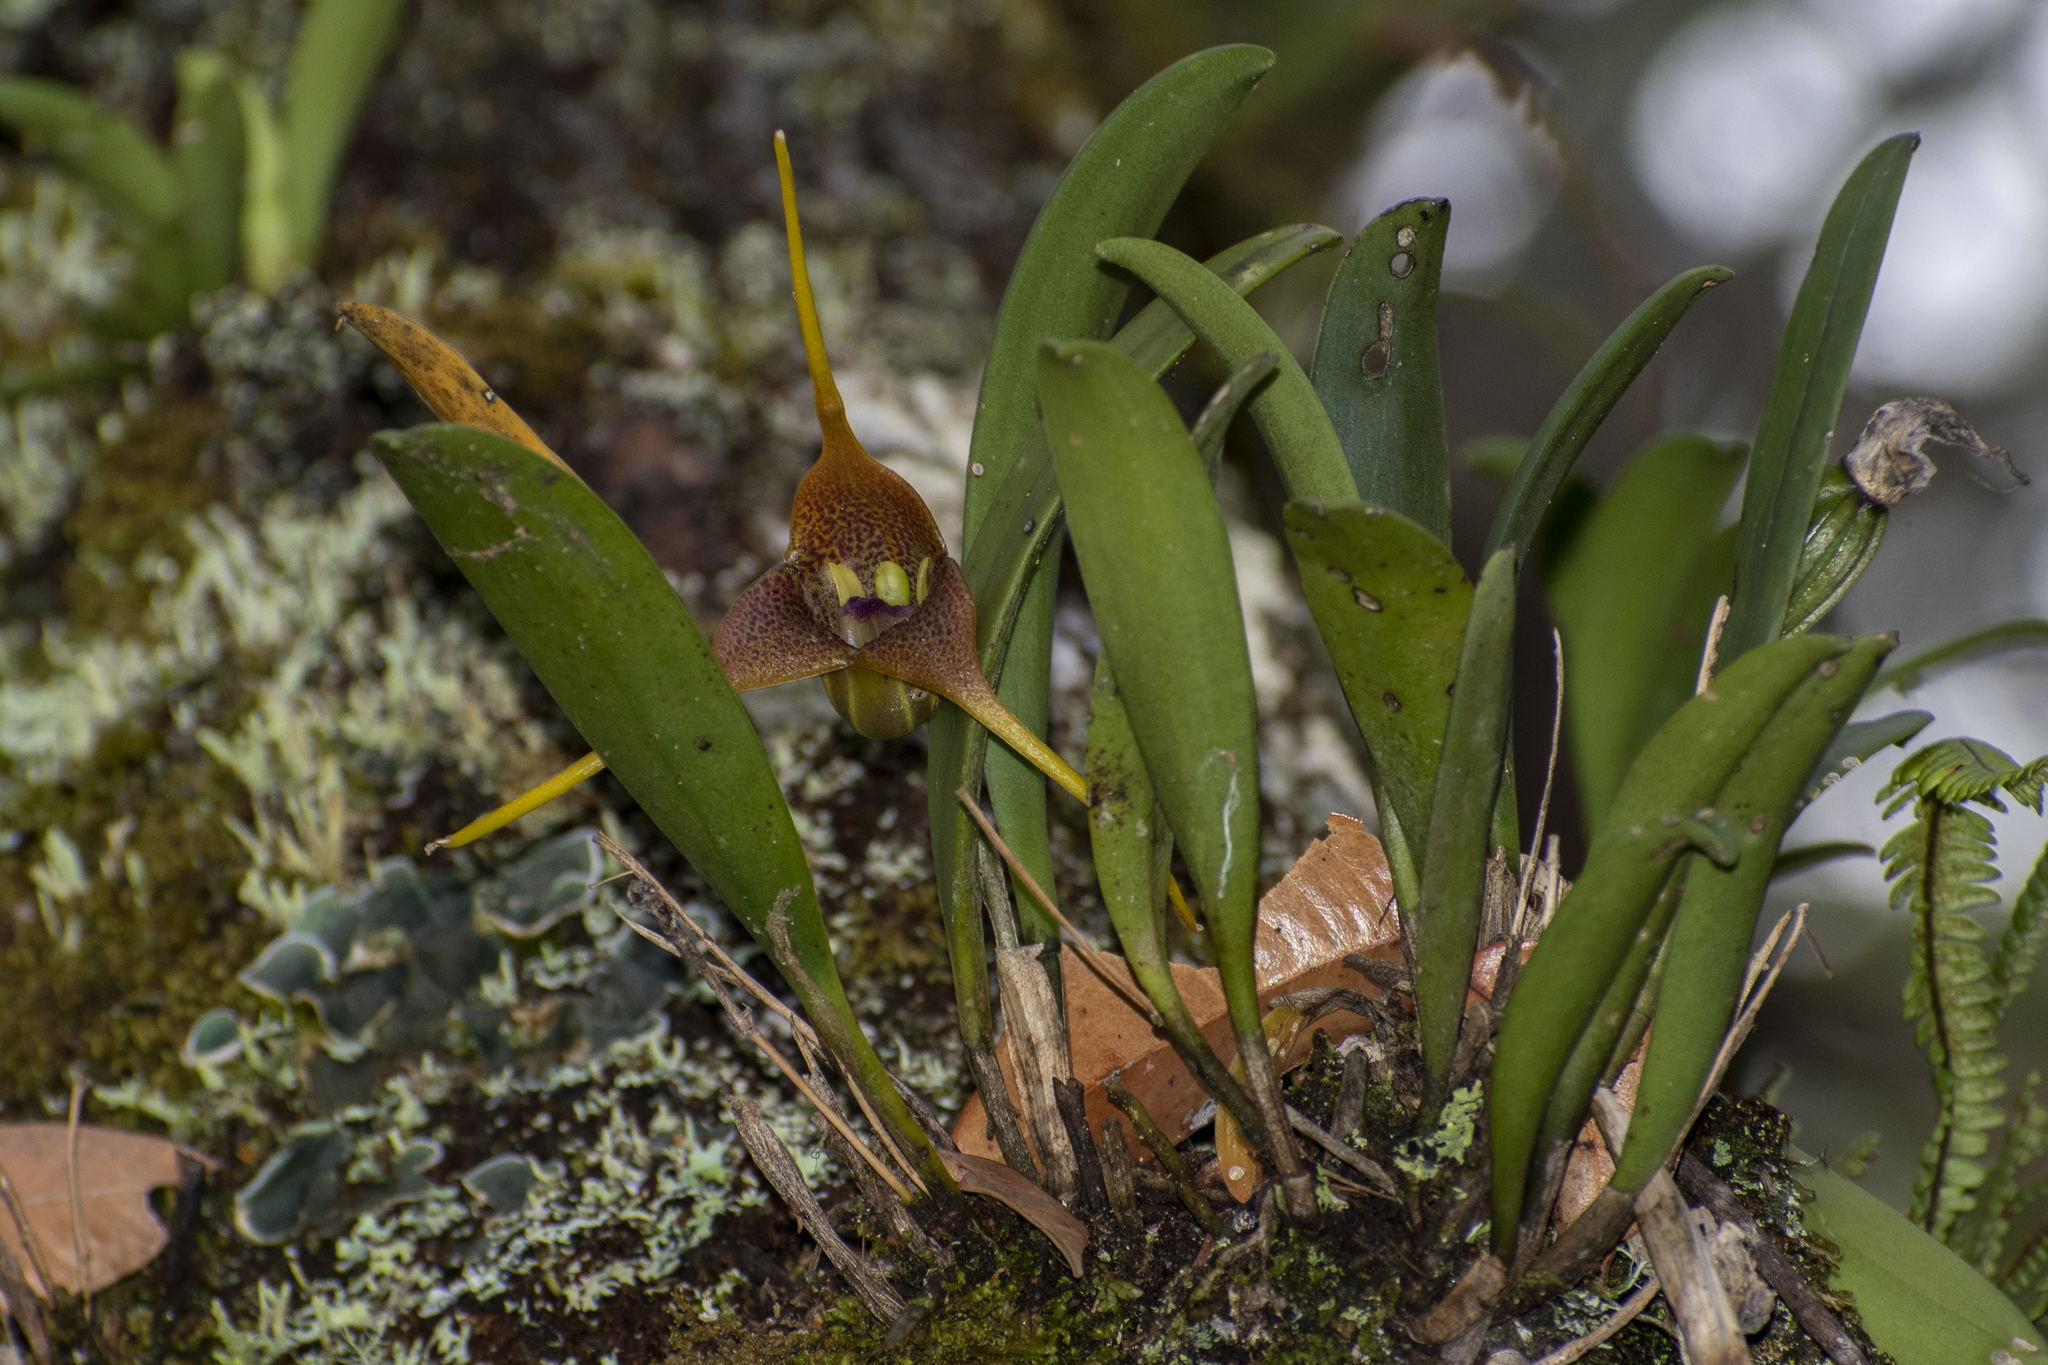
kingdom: Plantae
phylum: Tracheophyta
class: Liliopsida
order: Asparagales
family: Orchidaceae
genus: Masdevallia
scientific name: Masdevallia peristeria
